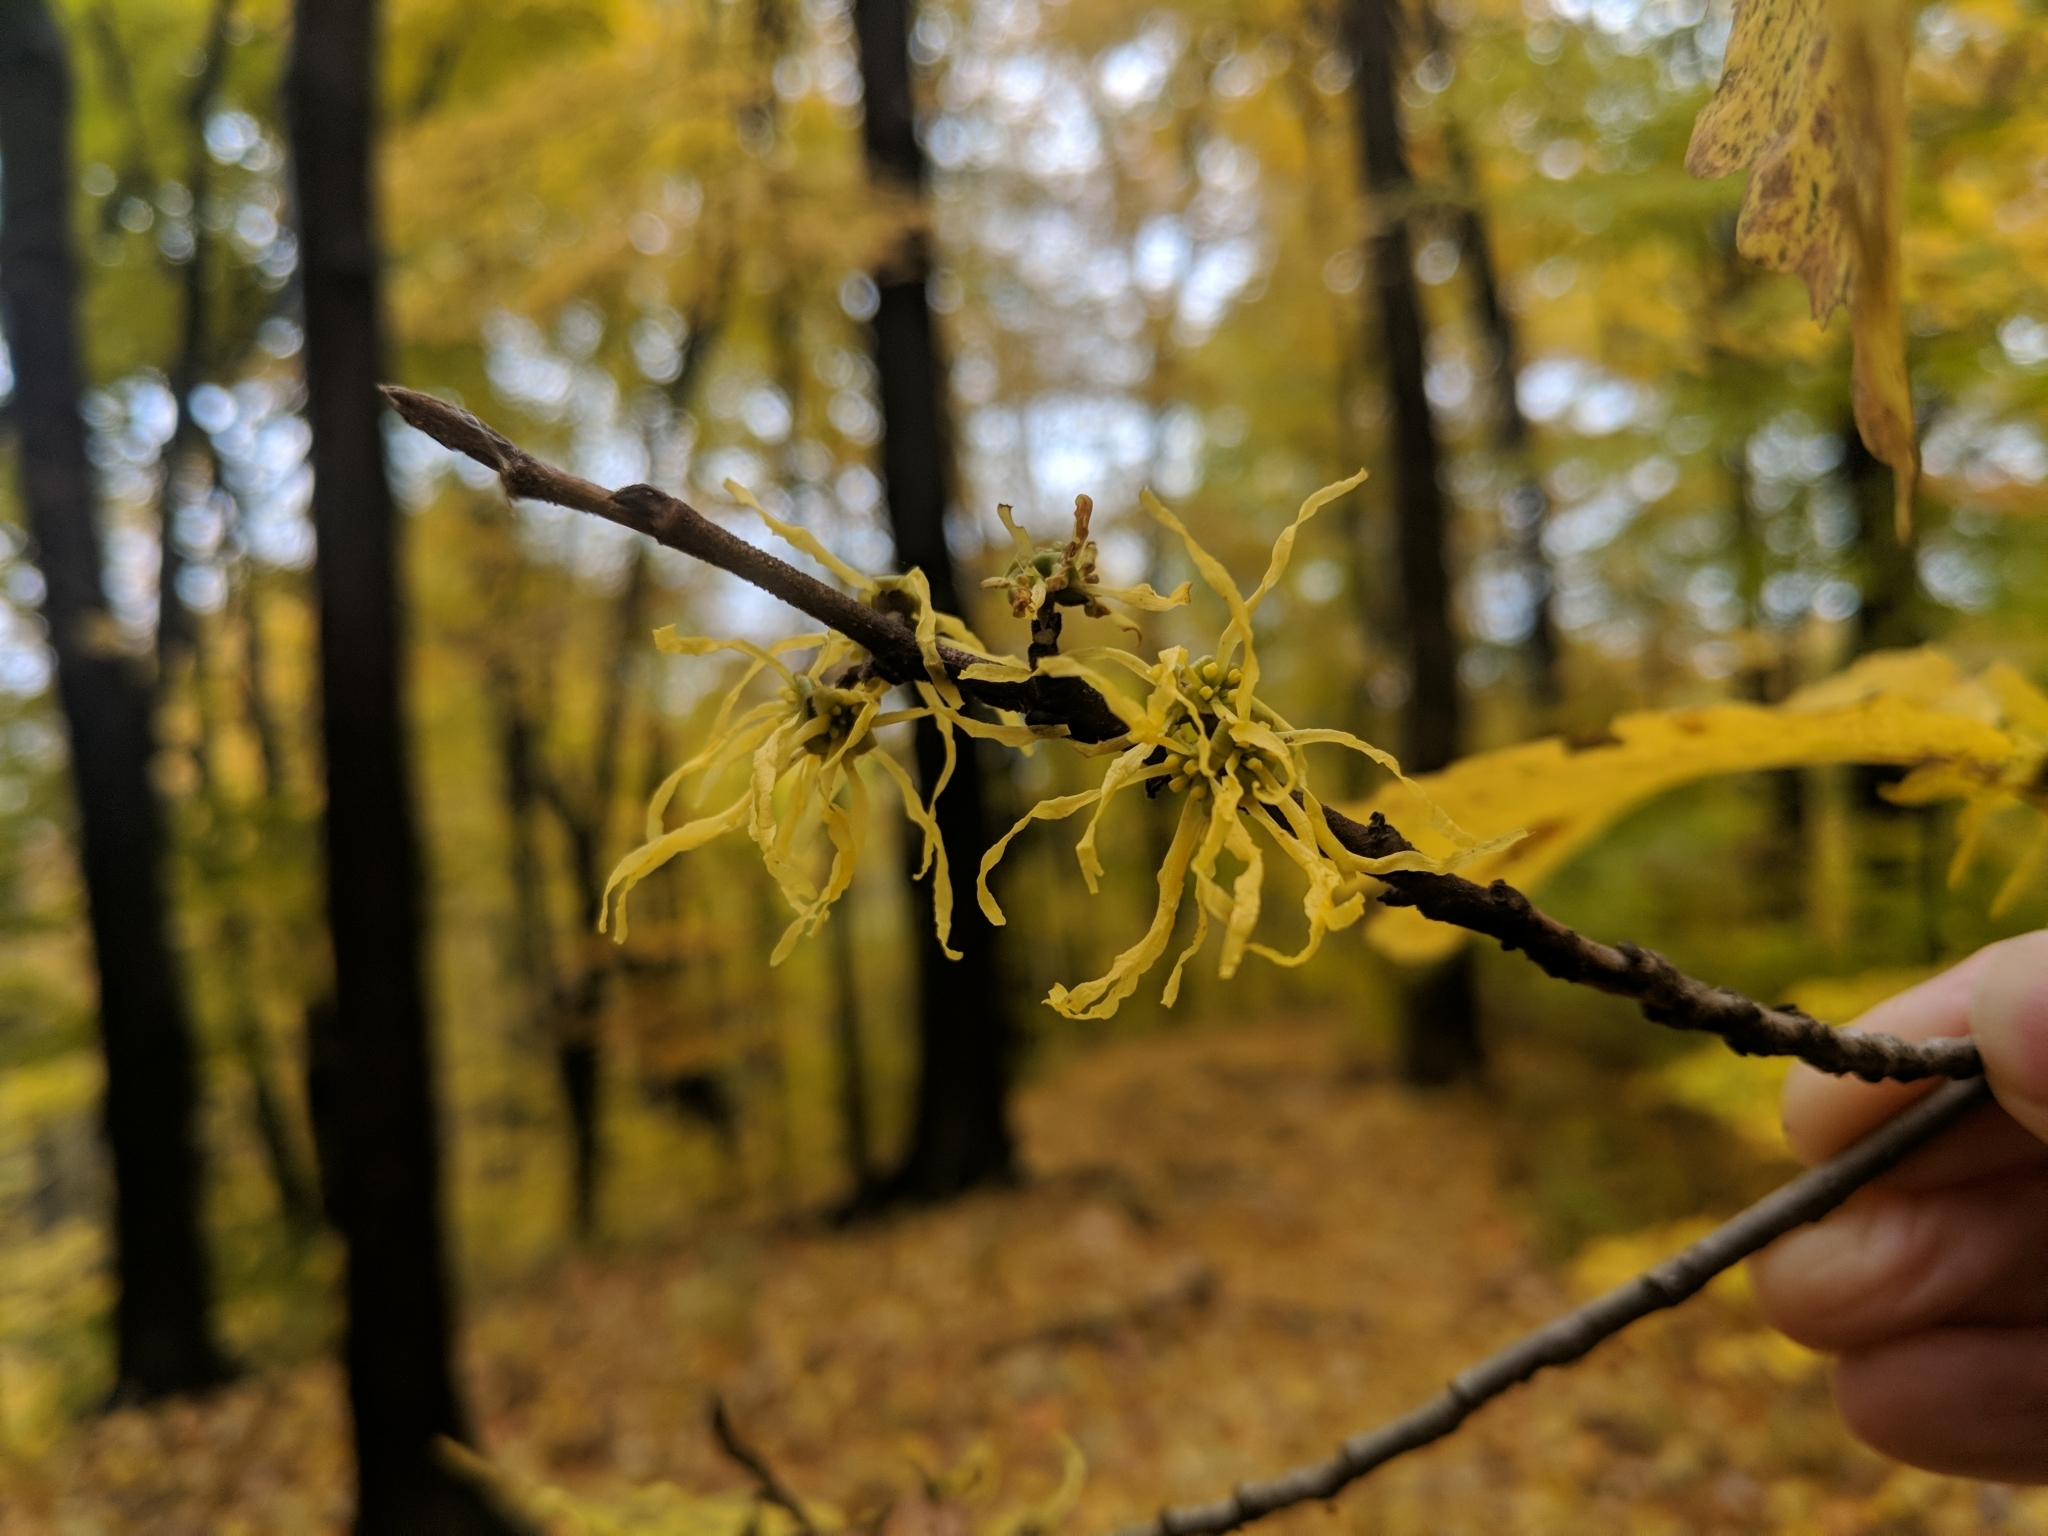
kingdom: Plantae
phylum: Tracheophyta
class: Magnoliopsida
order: Saxifragales
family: Hamamelidaceae
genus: Hamamelis
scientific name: Hamamelis virginiana
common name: Witch-hazel
